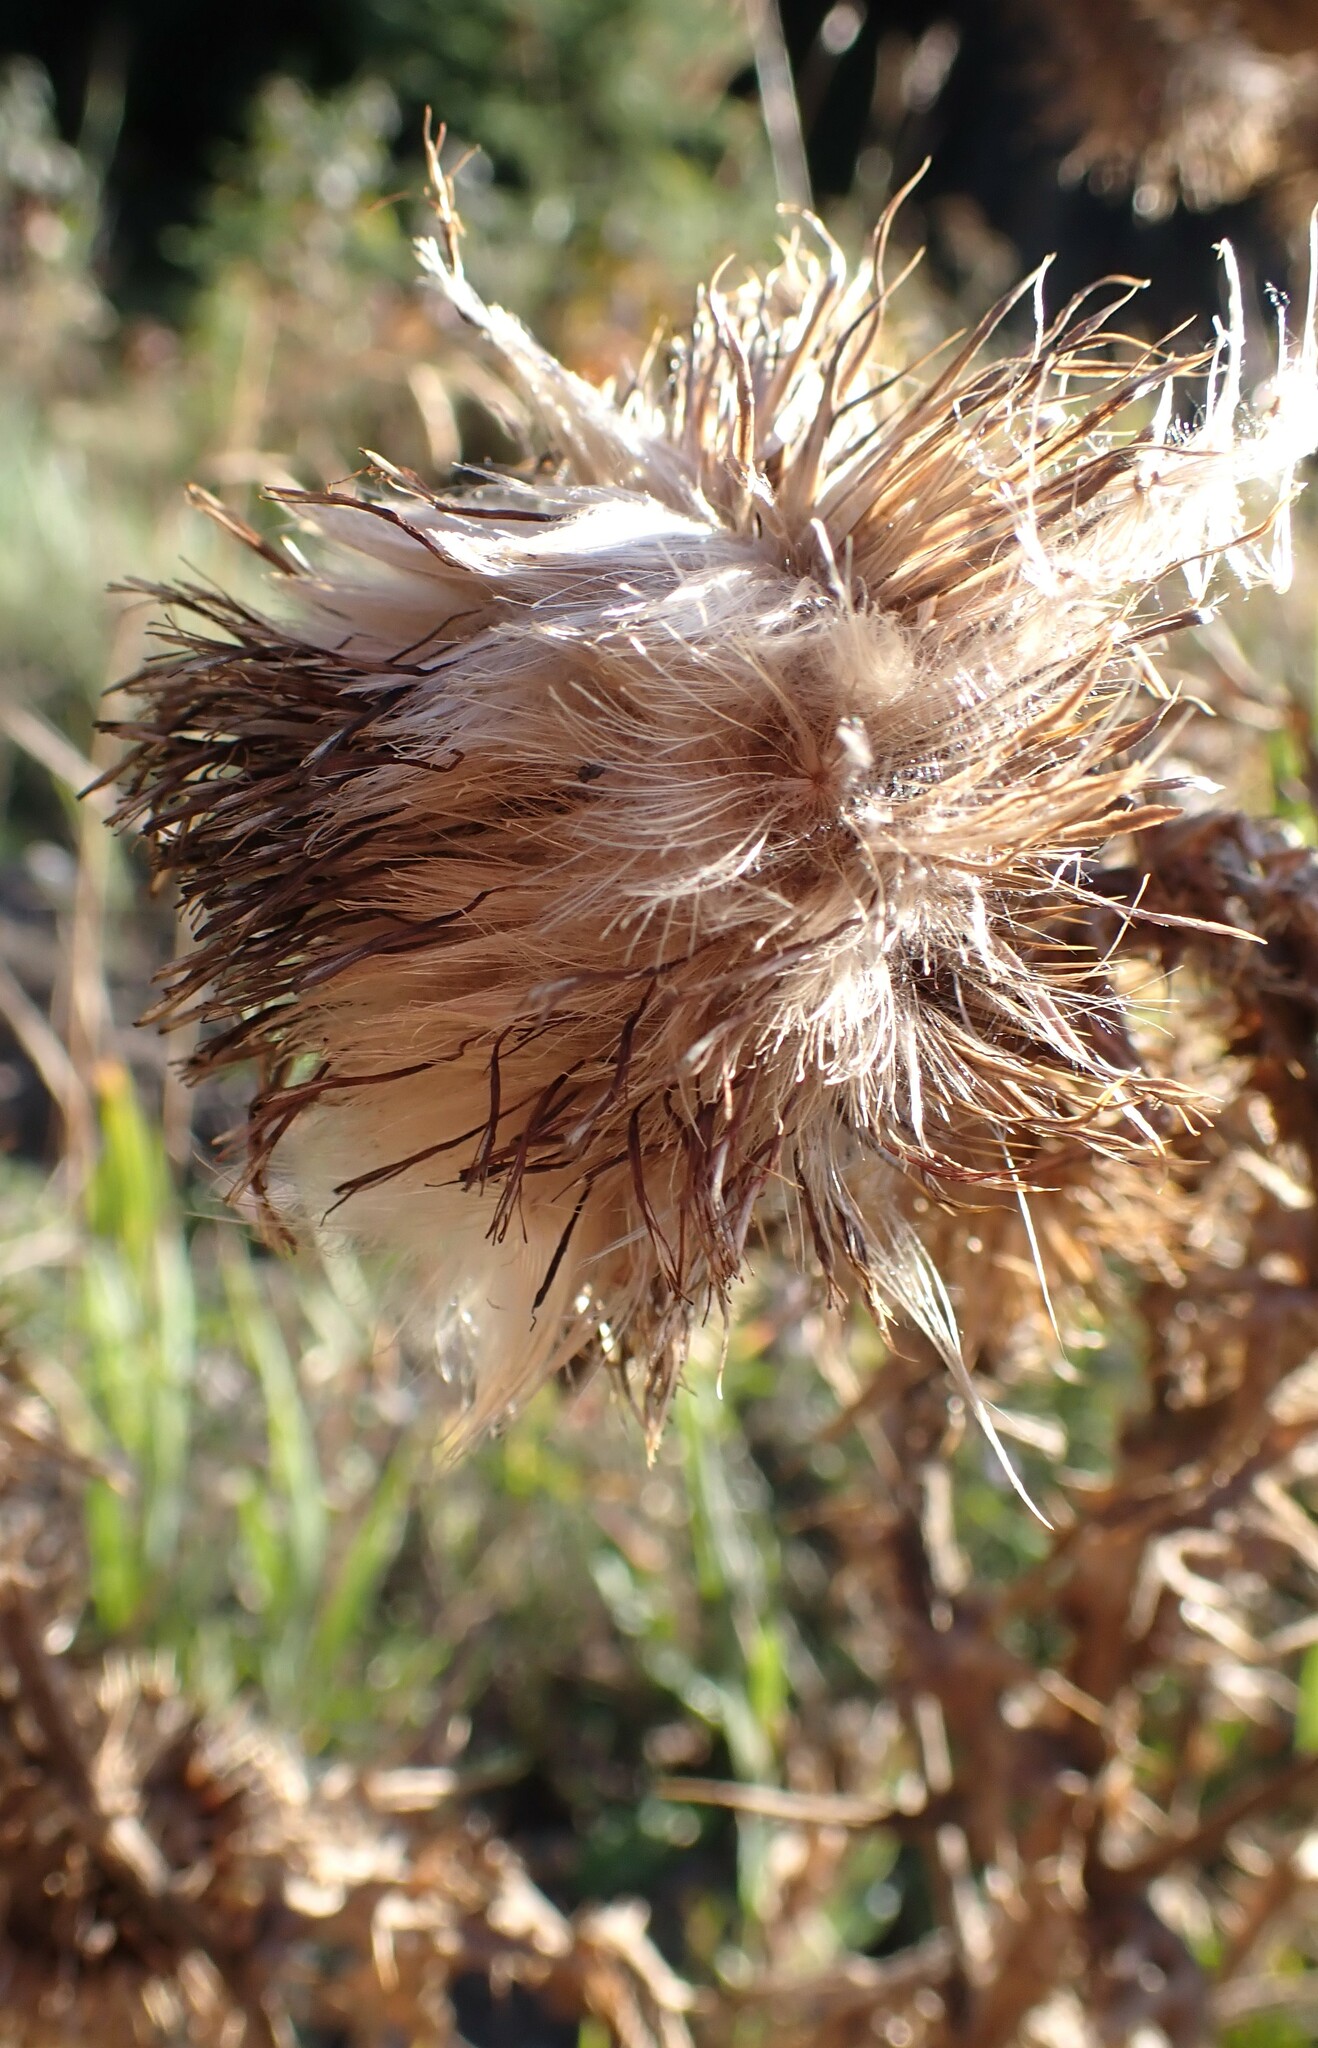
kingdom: Plantae
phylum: Tracheophyta
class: Magnoliopsida
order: Asterales
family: Asteraceae
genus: Cirsium
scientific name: Cirsium vulgare
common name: Bull thistle
